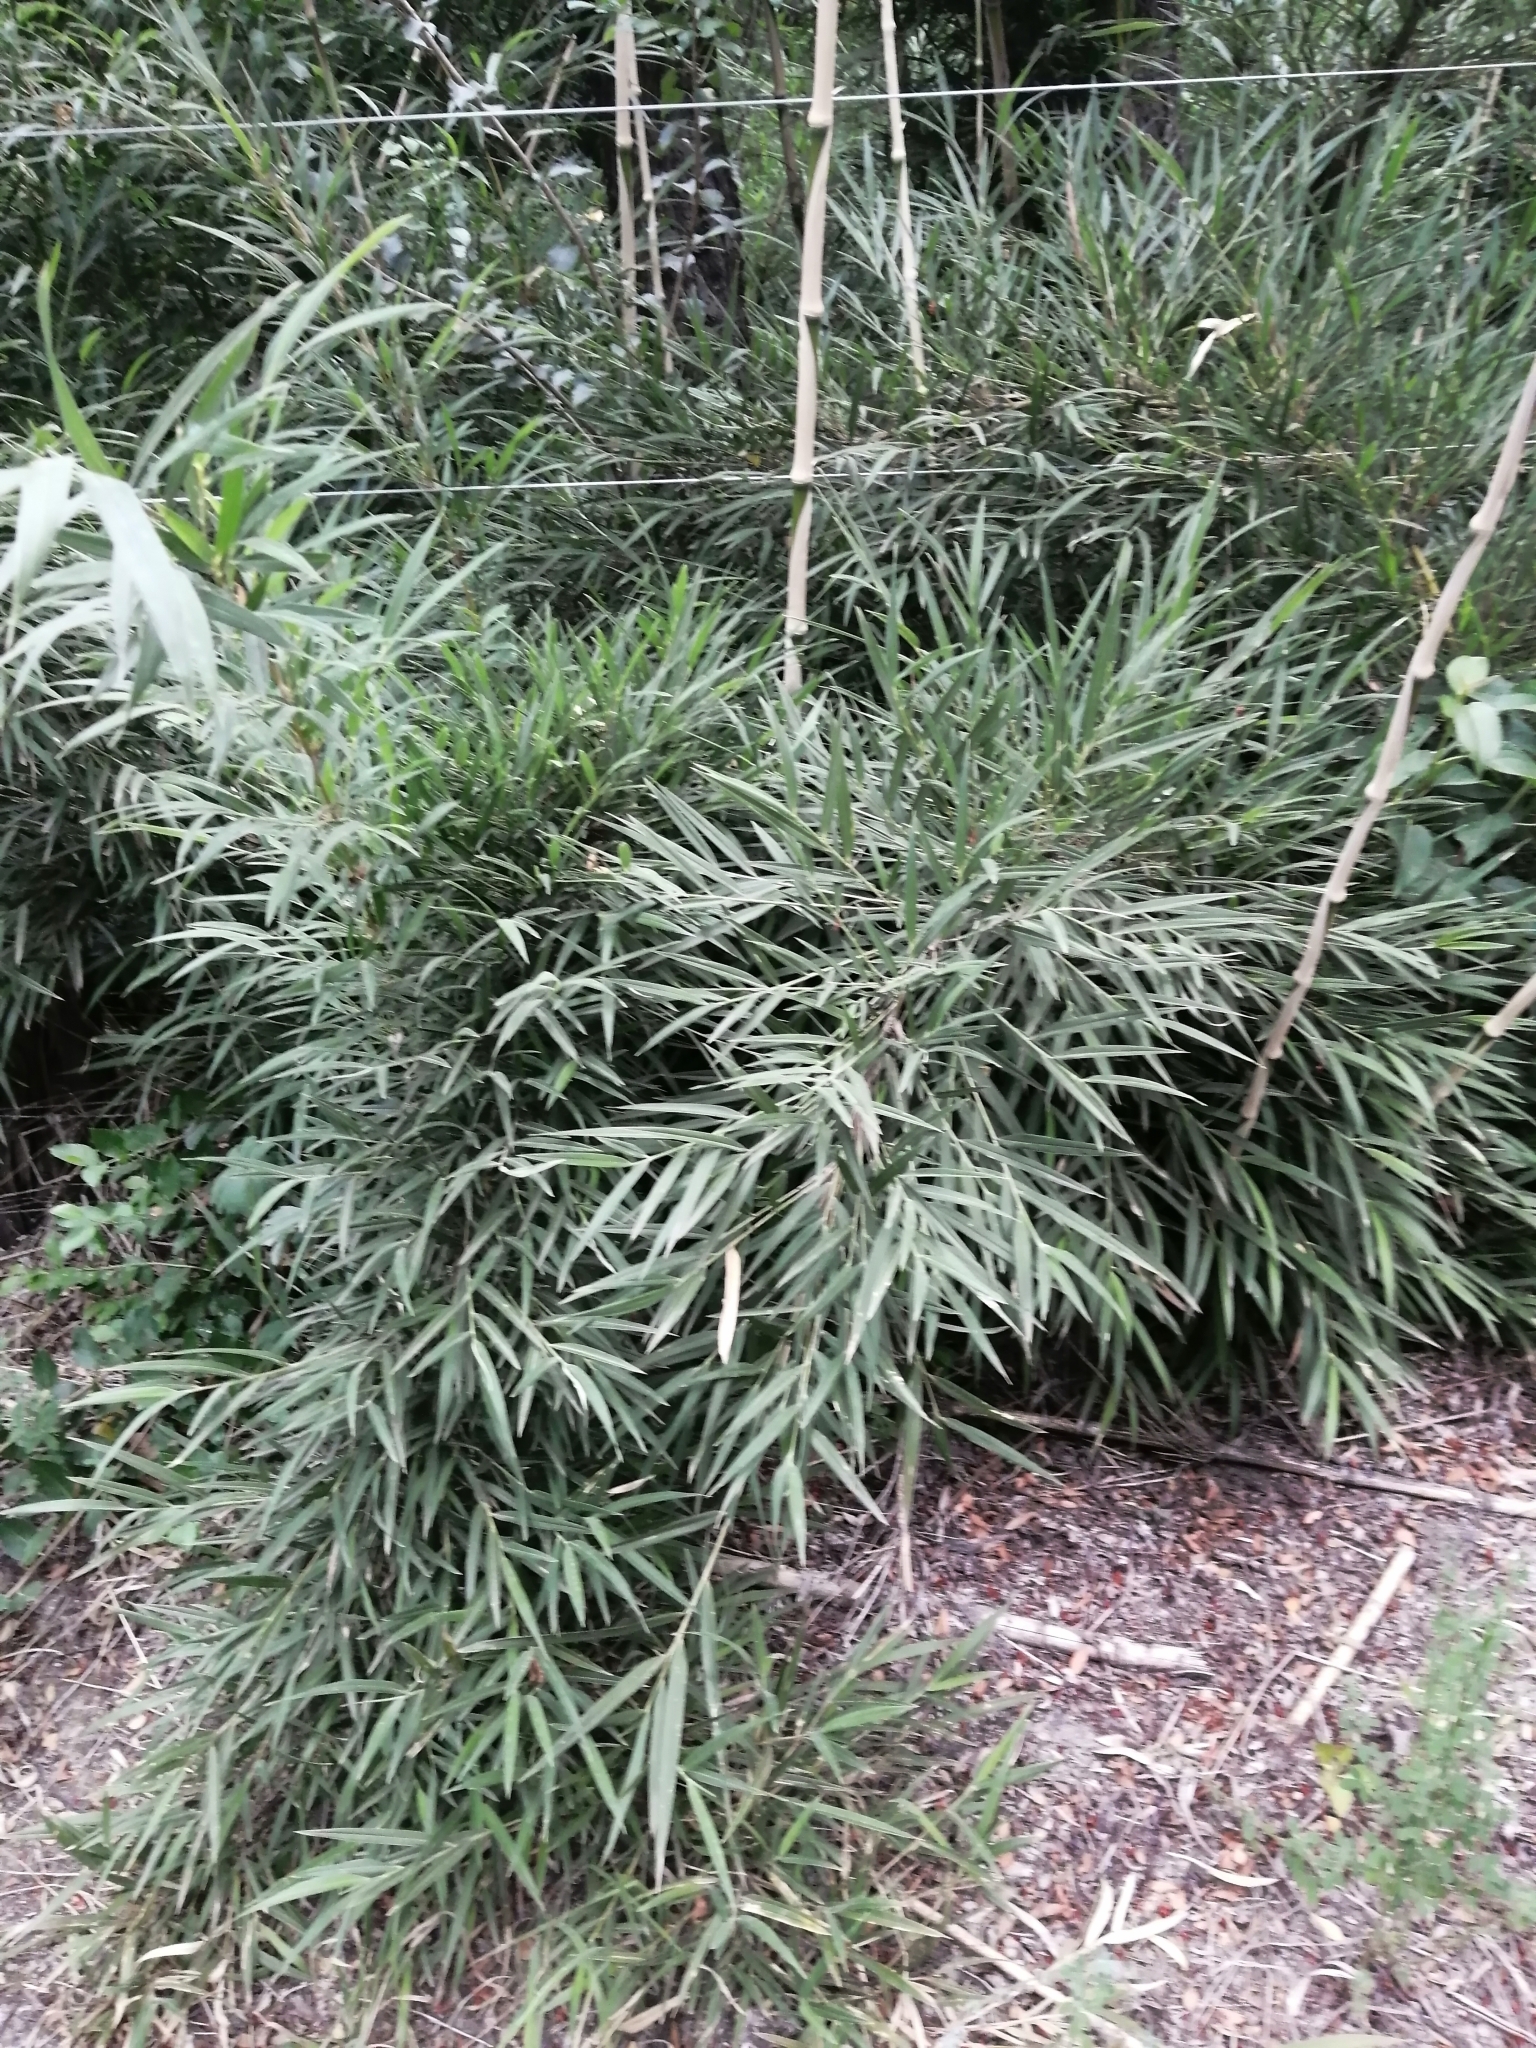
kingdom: Plantae
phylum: Tracheophyta
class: Liliopsida
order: Poales
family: Poaceae
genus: Chusquea
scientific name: Chusquea culeou
